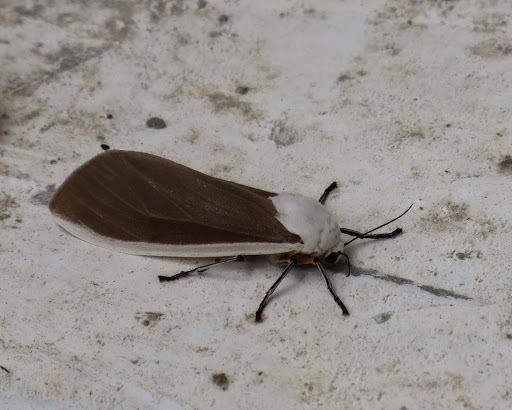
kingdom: Animalia
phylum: Arthropoda
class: Insecta
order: Lepidoptera
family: Erebidae
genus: Creatonotos
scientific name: Creatonotos wilemani
